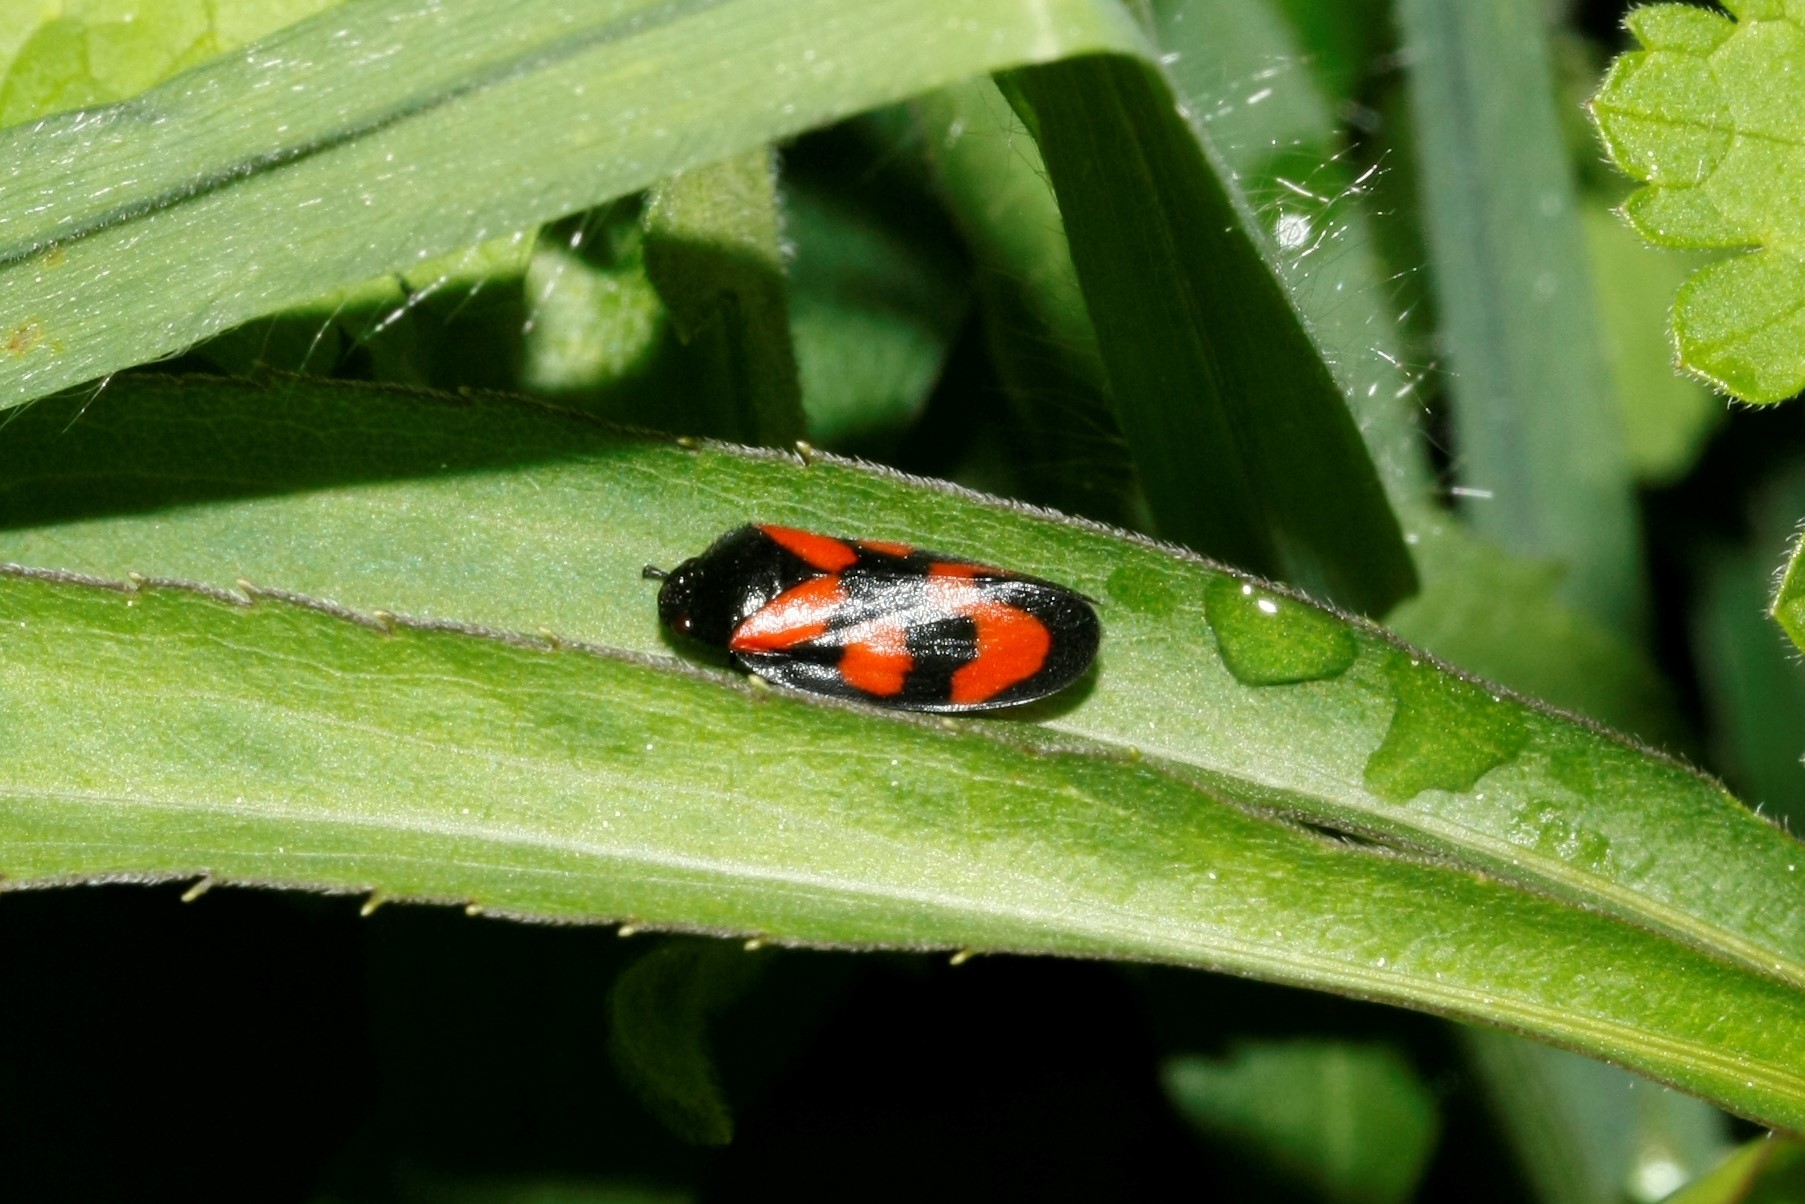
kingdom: Animalia
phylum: Arthropoda
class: Insecta
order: Hemiptera
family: Cercopidae
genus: Cercopis
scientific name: Cercopis vulnerata
